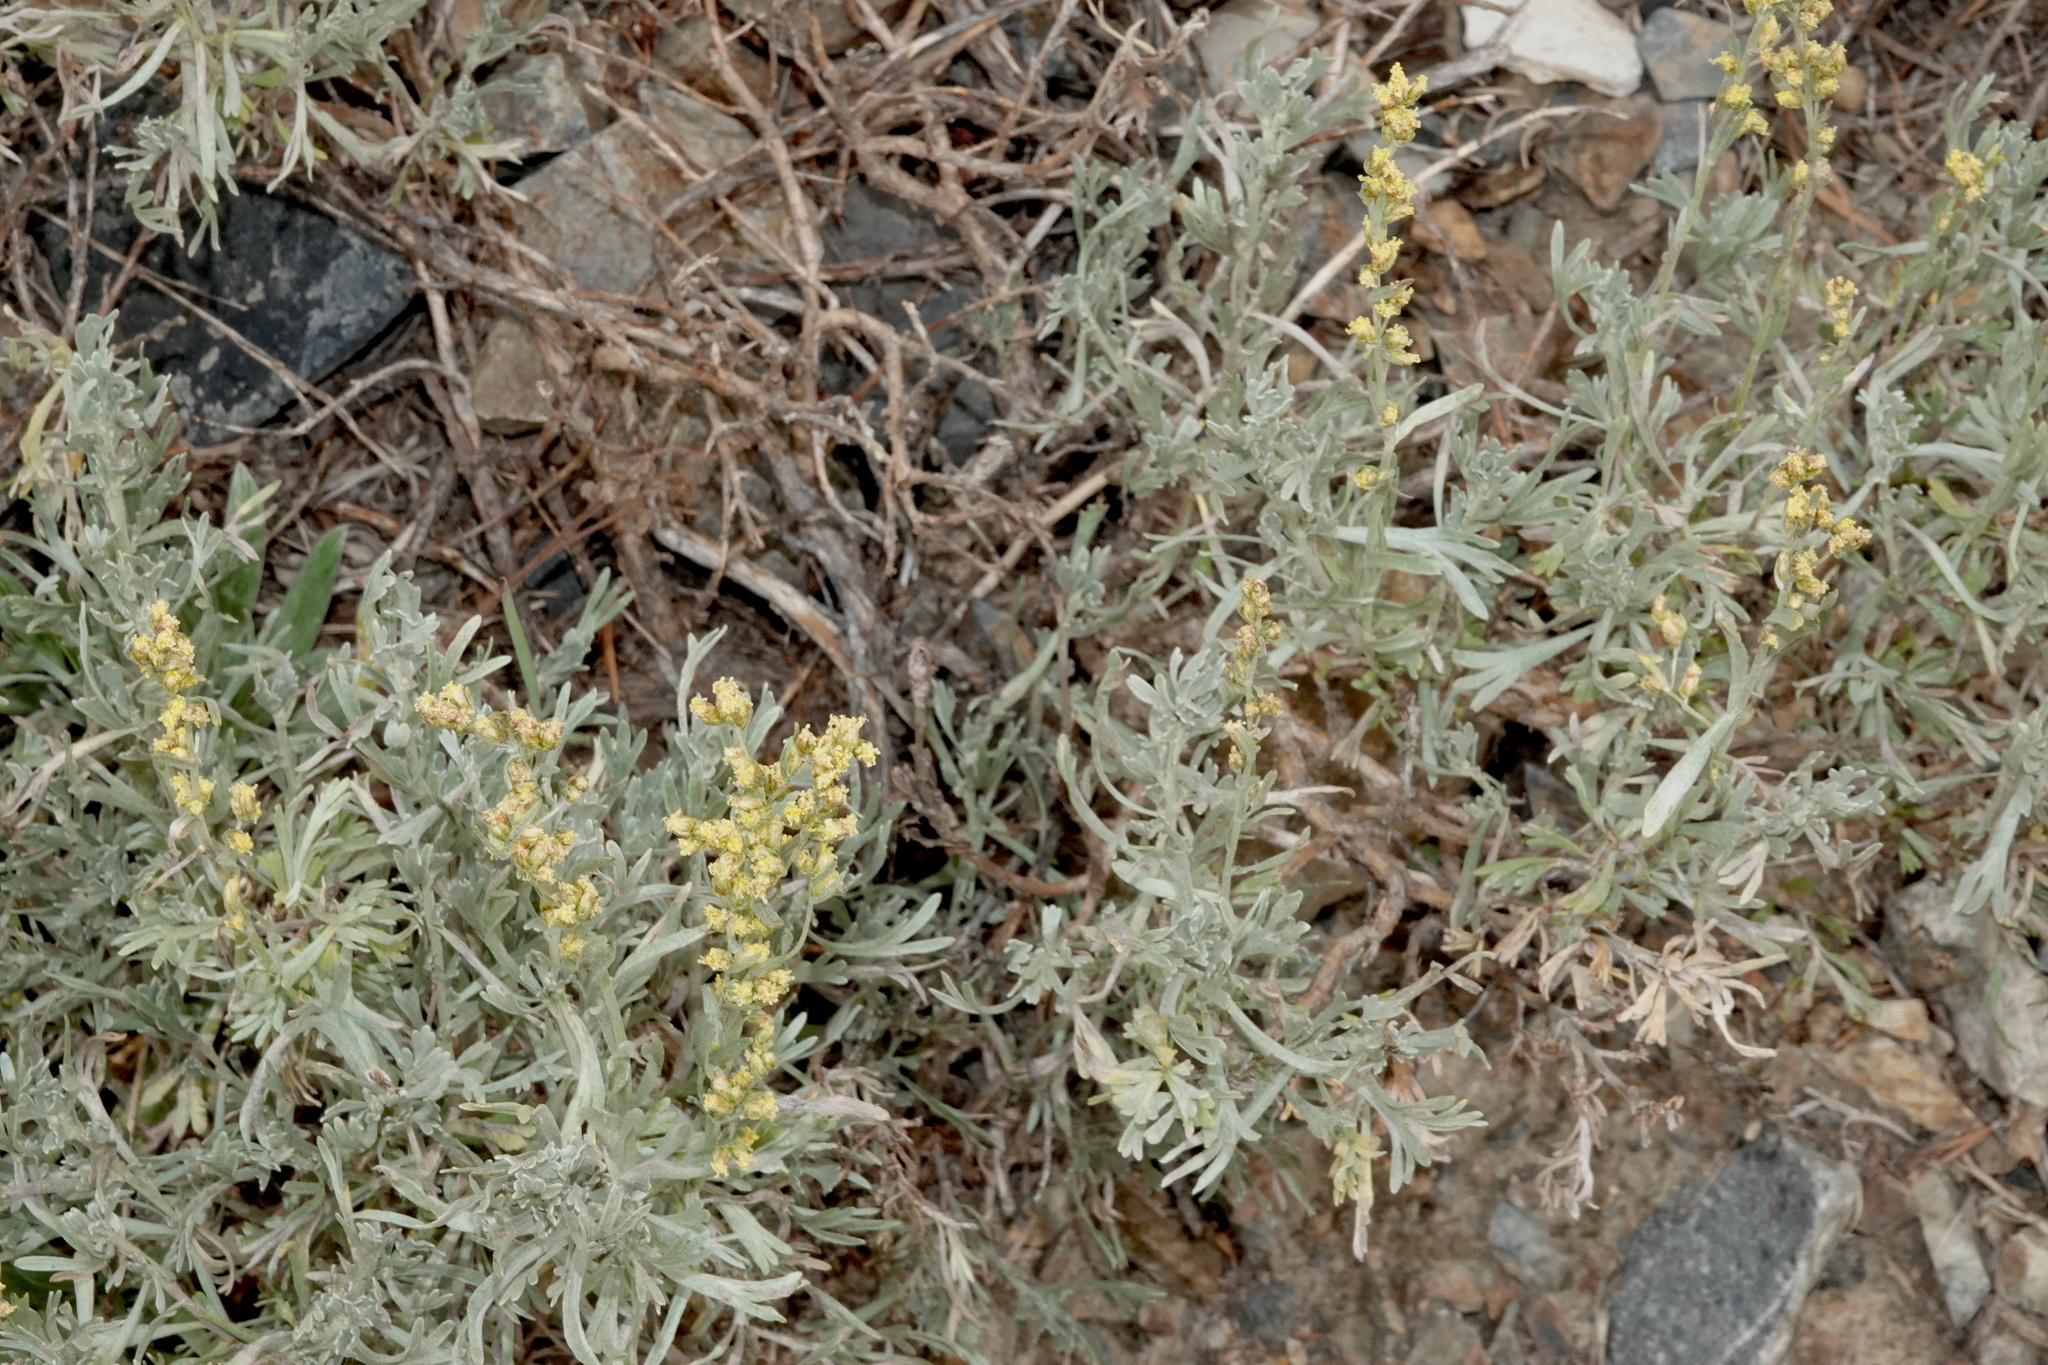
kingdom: Plantae
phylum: Tracheophyta
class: Magnoliopsida
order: Asterales
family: Asteraceae
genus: Artemisia
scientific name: Artemisia ludoviciana
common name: Western mugwort
